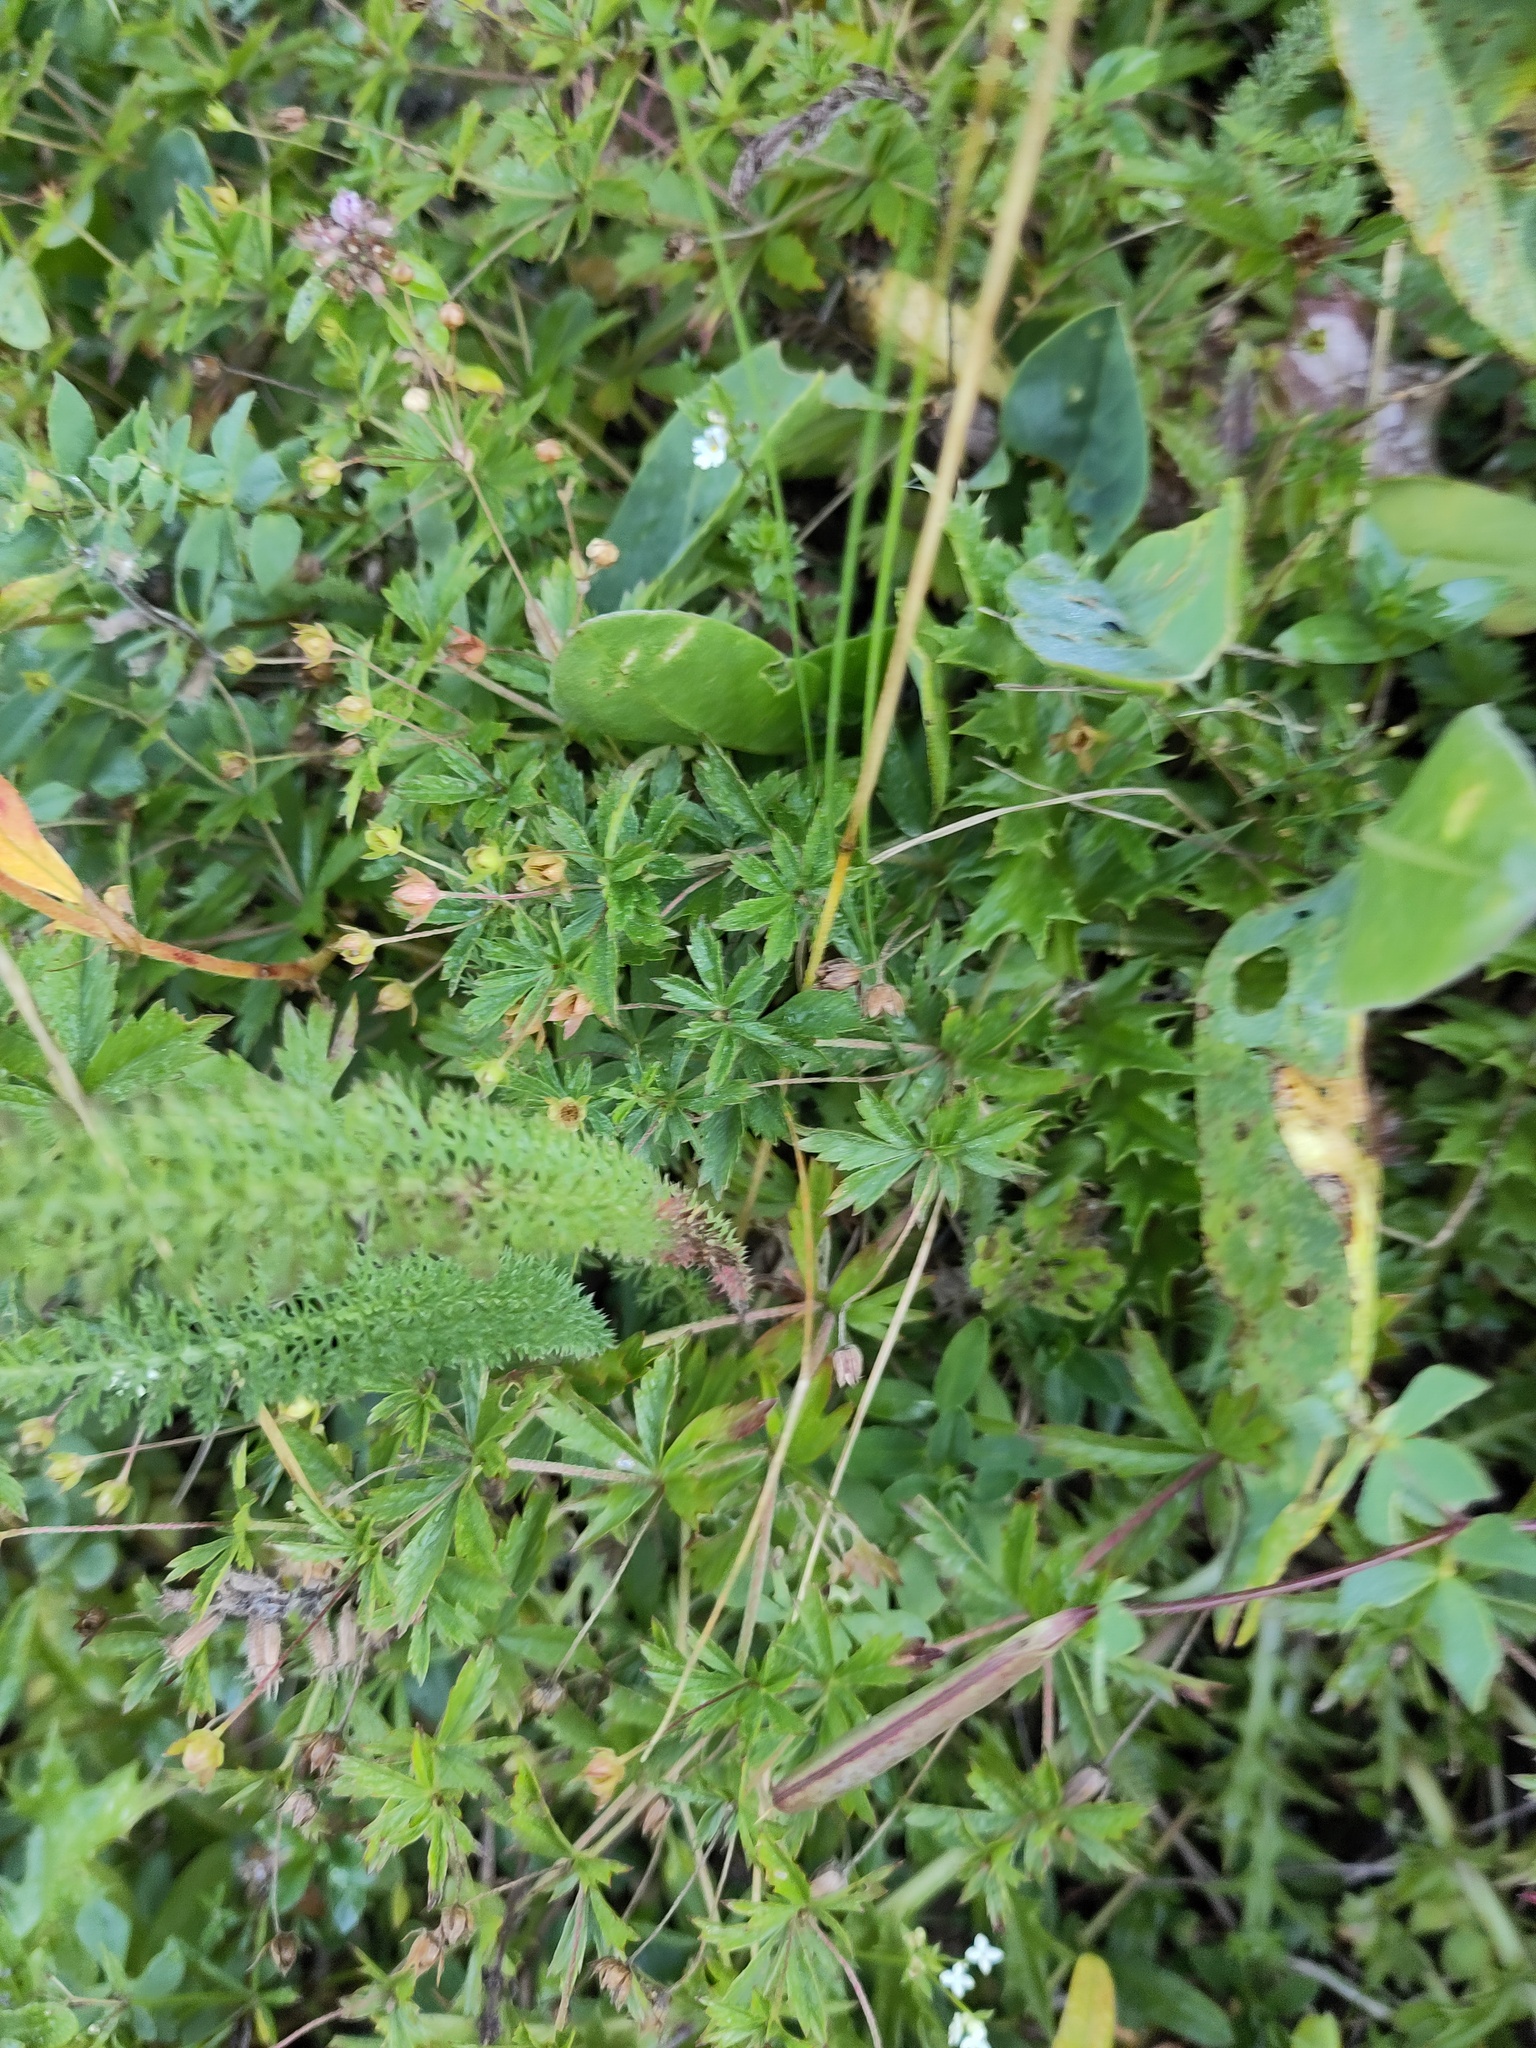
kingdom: Plantae
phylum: Tracheophyta
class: Magnoliopsida
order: Rosales
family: Rosaceae
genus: Potentilla
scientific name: Potentilla erecta
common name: Tormentil
